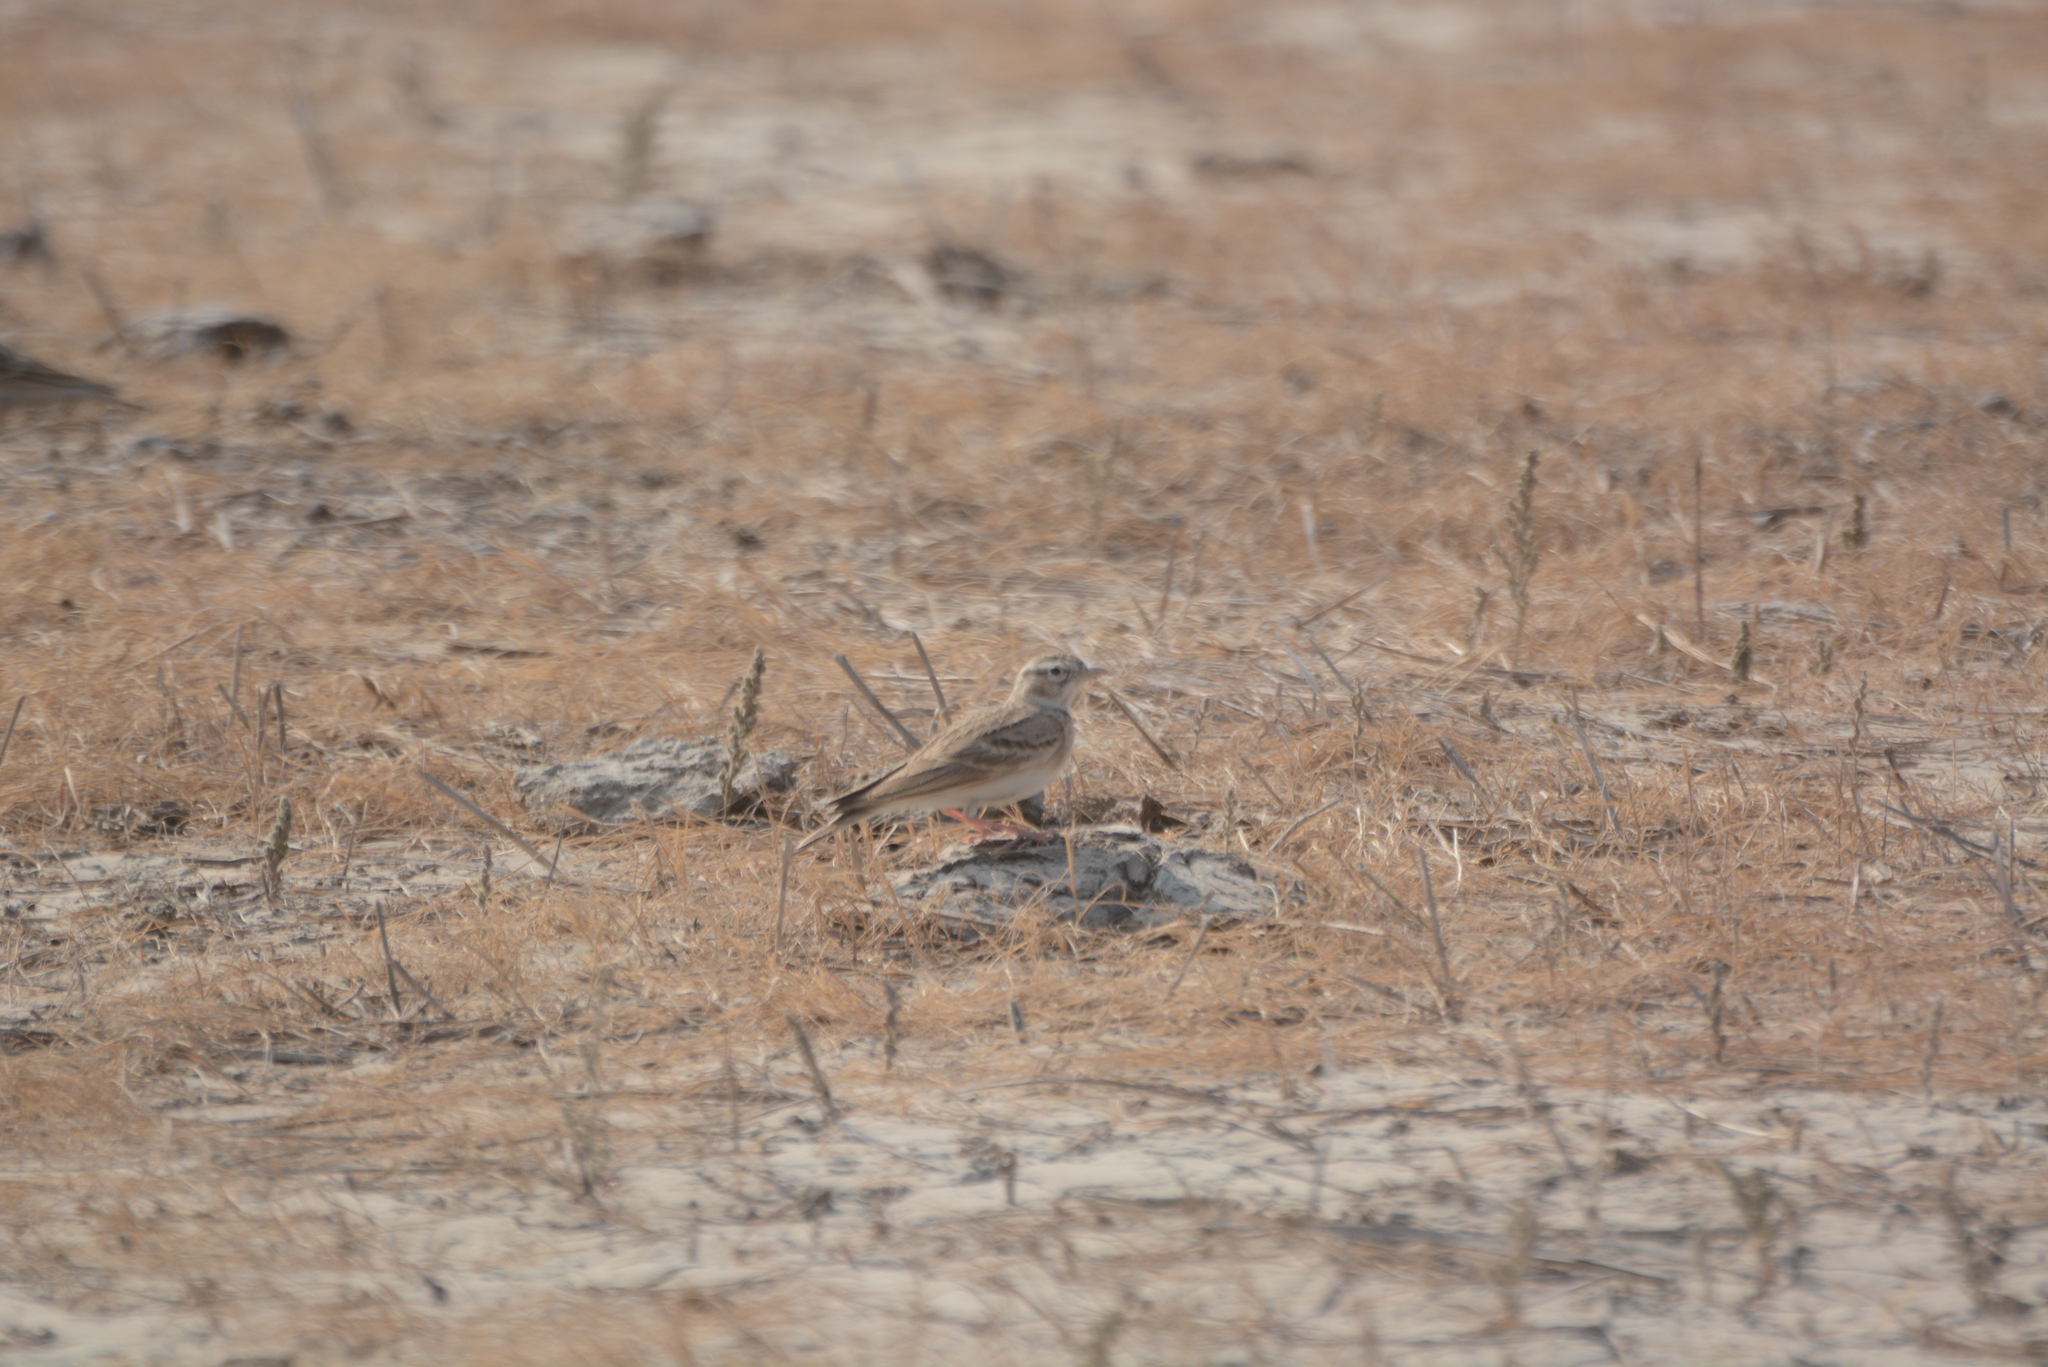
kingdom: Animalia
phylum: Chordata
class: Aves
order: Passeriformes
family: Alaudidae
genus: Calandrella
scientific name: Calandrella brachydactyla
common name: Greater short-toed lark
